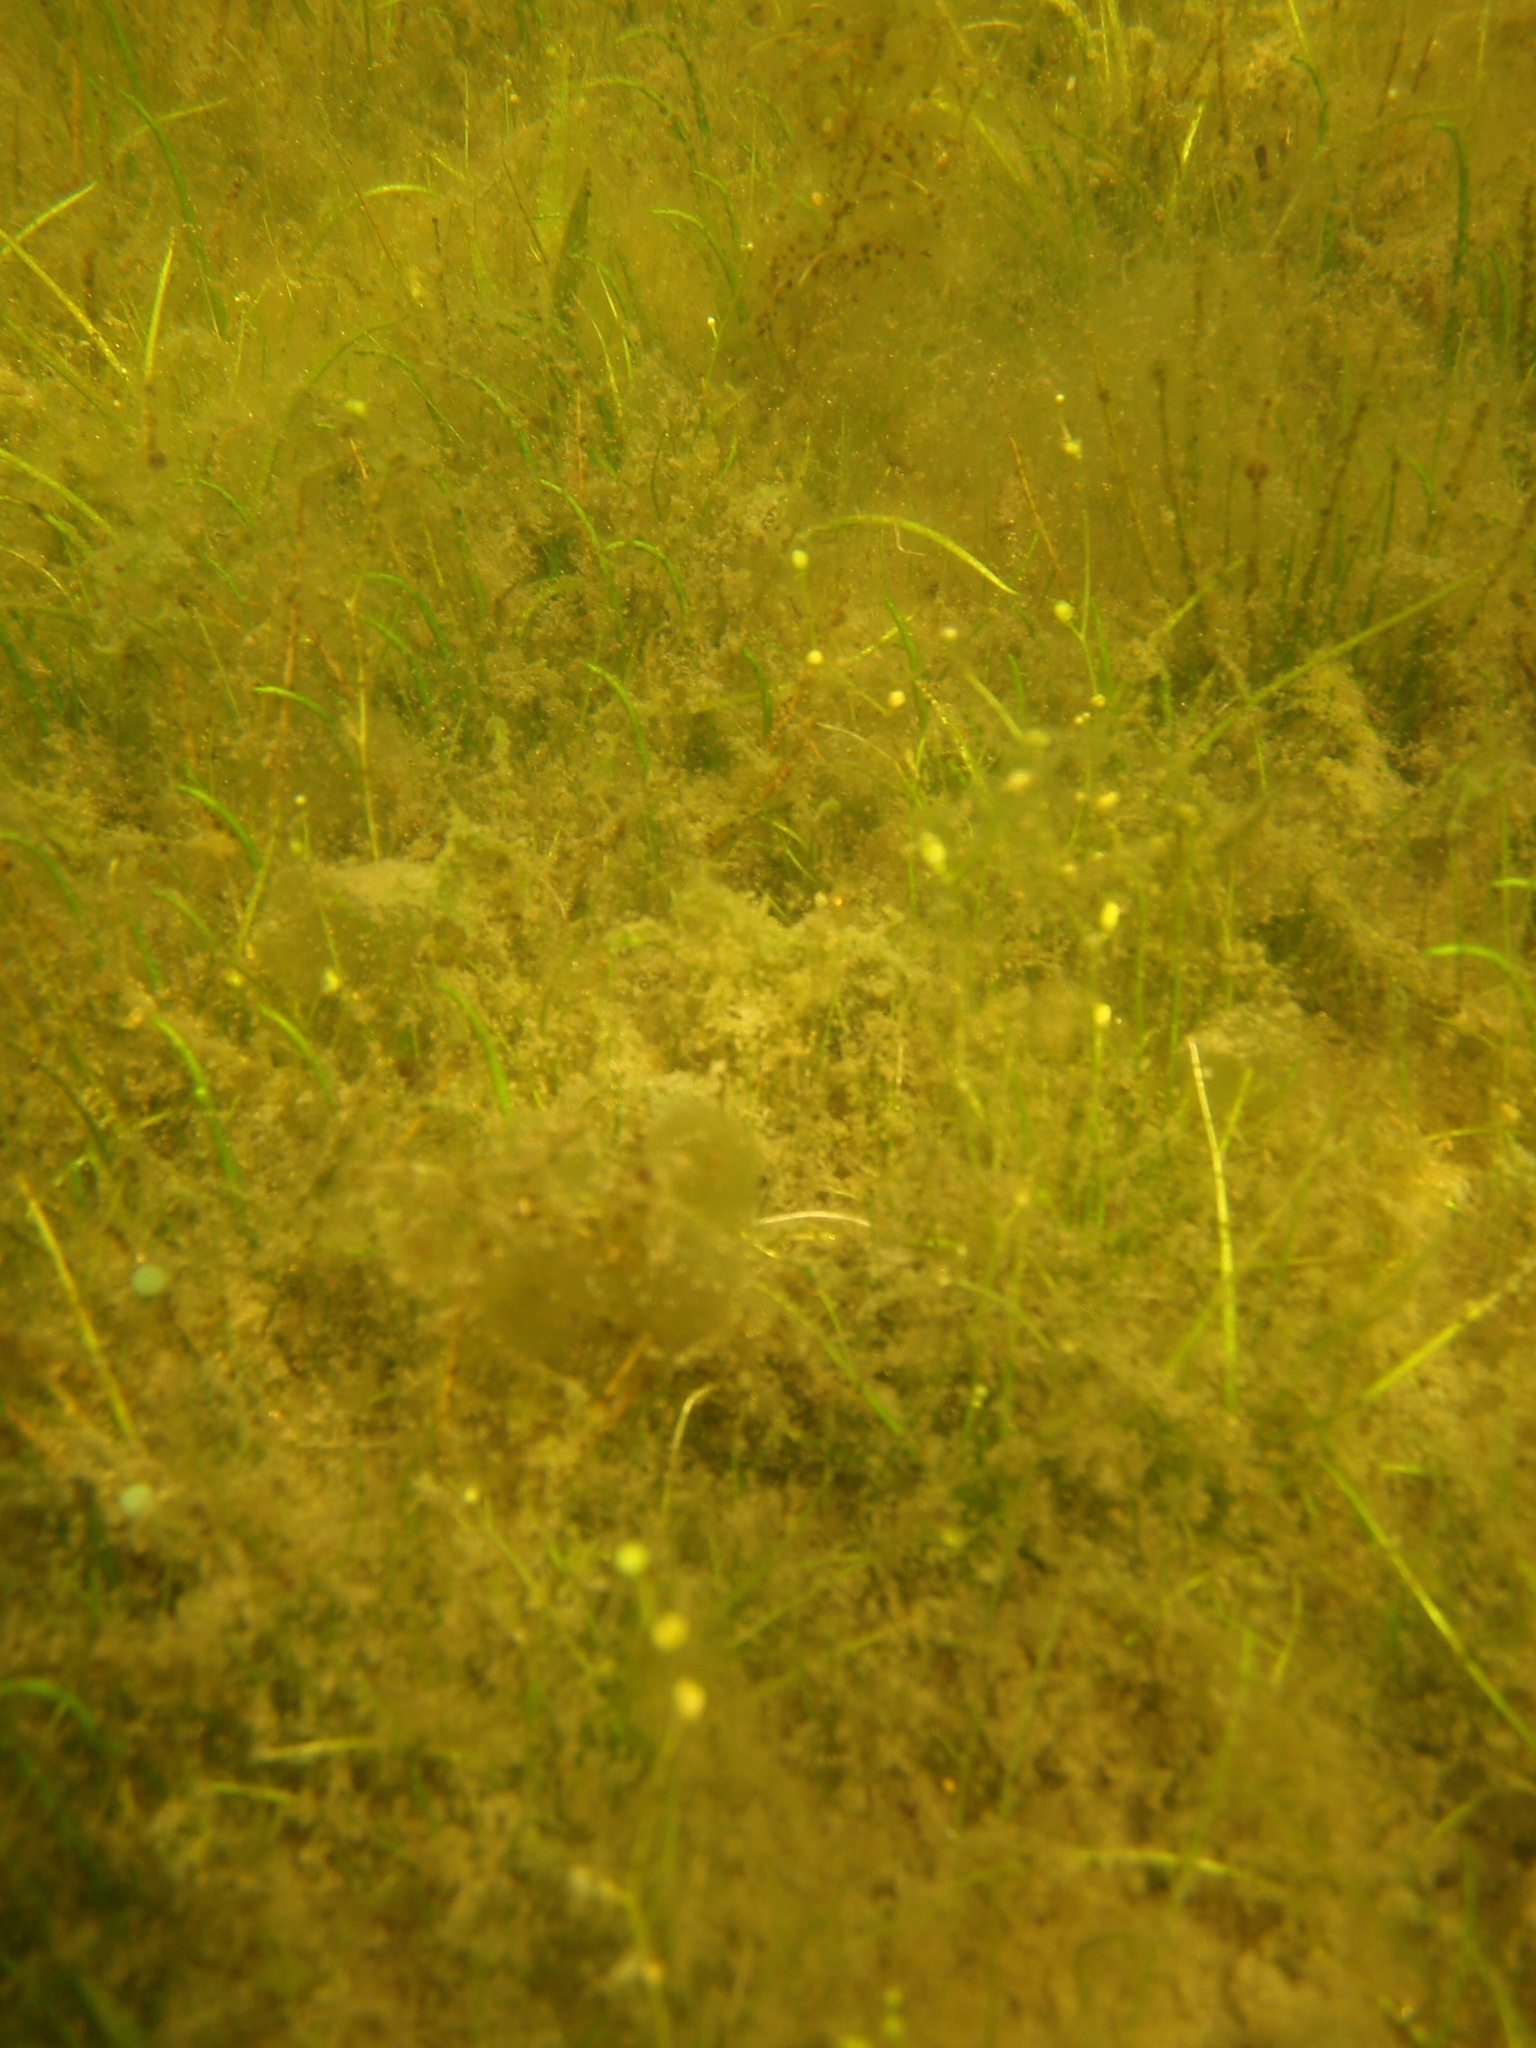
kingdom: Plantae
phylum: Tracheophyta
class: Magnoliopsida
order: Brassicales
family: Brassicaceae
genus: Subularia
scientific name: Subularia aquatica
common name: Awlwort
